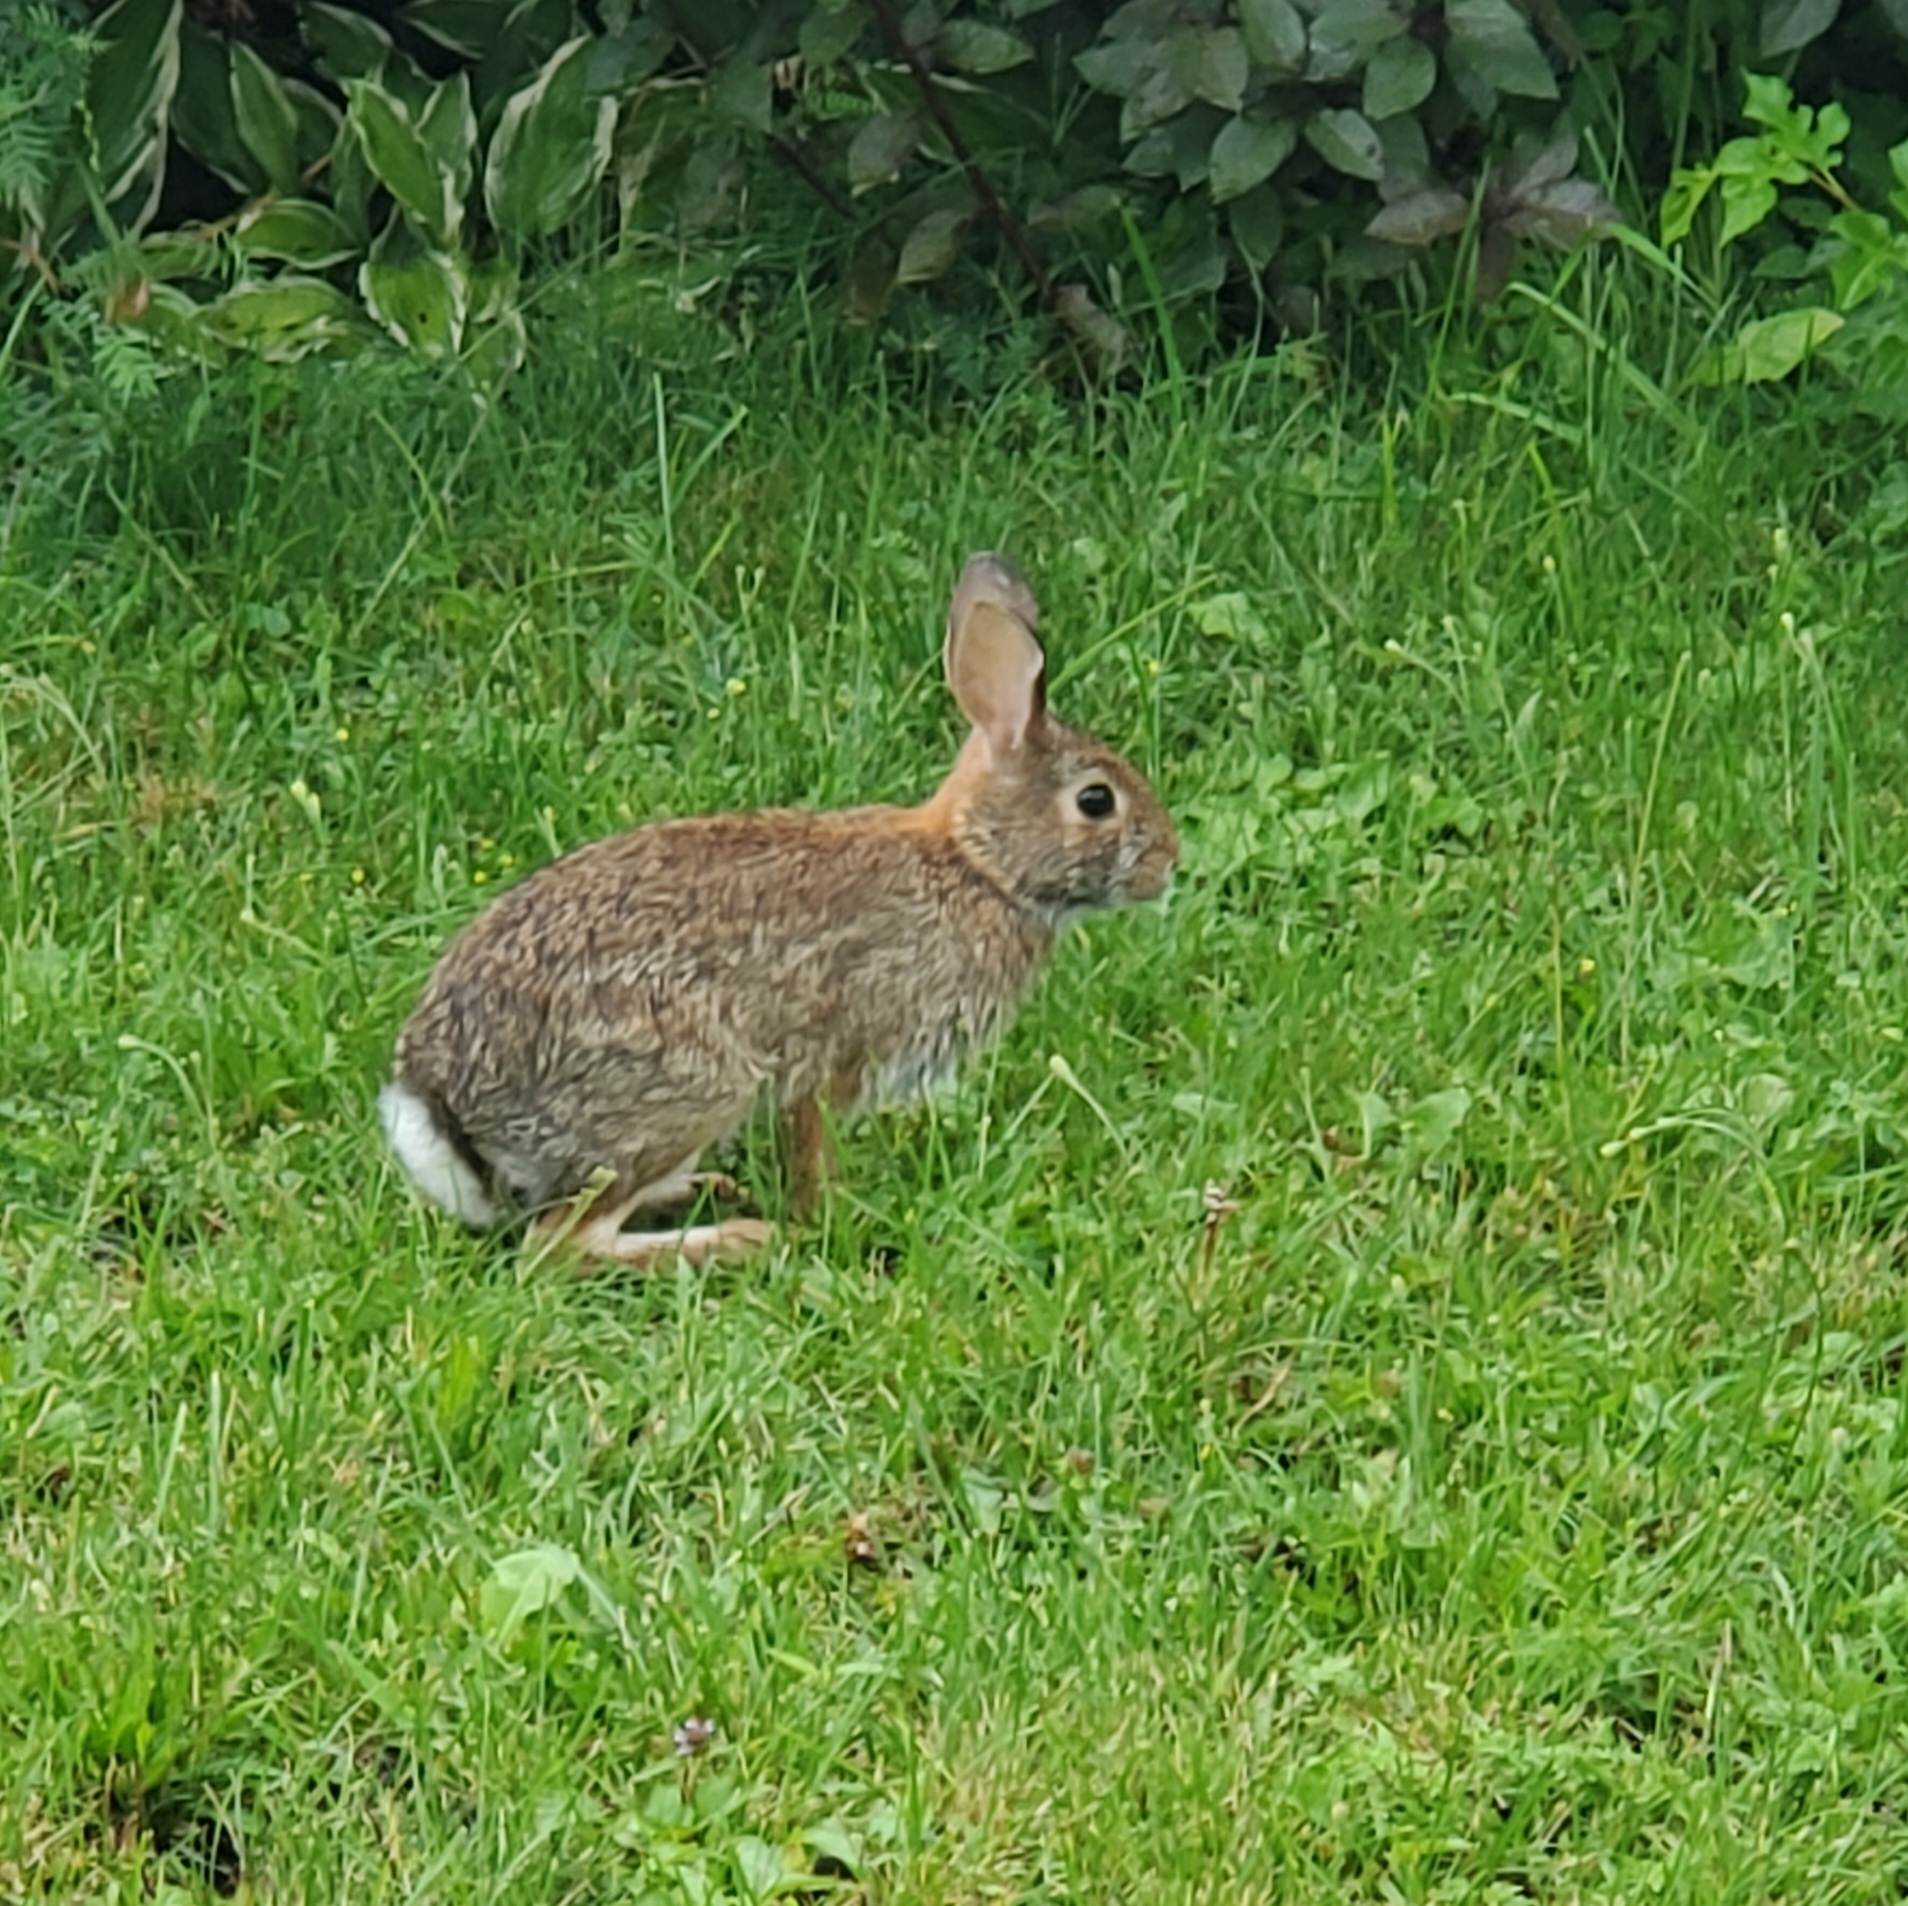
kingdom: Animalia
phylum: Chordata
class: Mammalia
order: Lagomorpha
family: Leporidae
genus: Sylvilagus
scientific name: Sylvilagus floridanus
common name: Eastern cottontail
